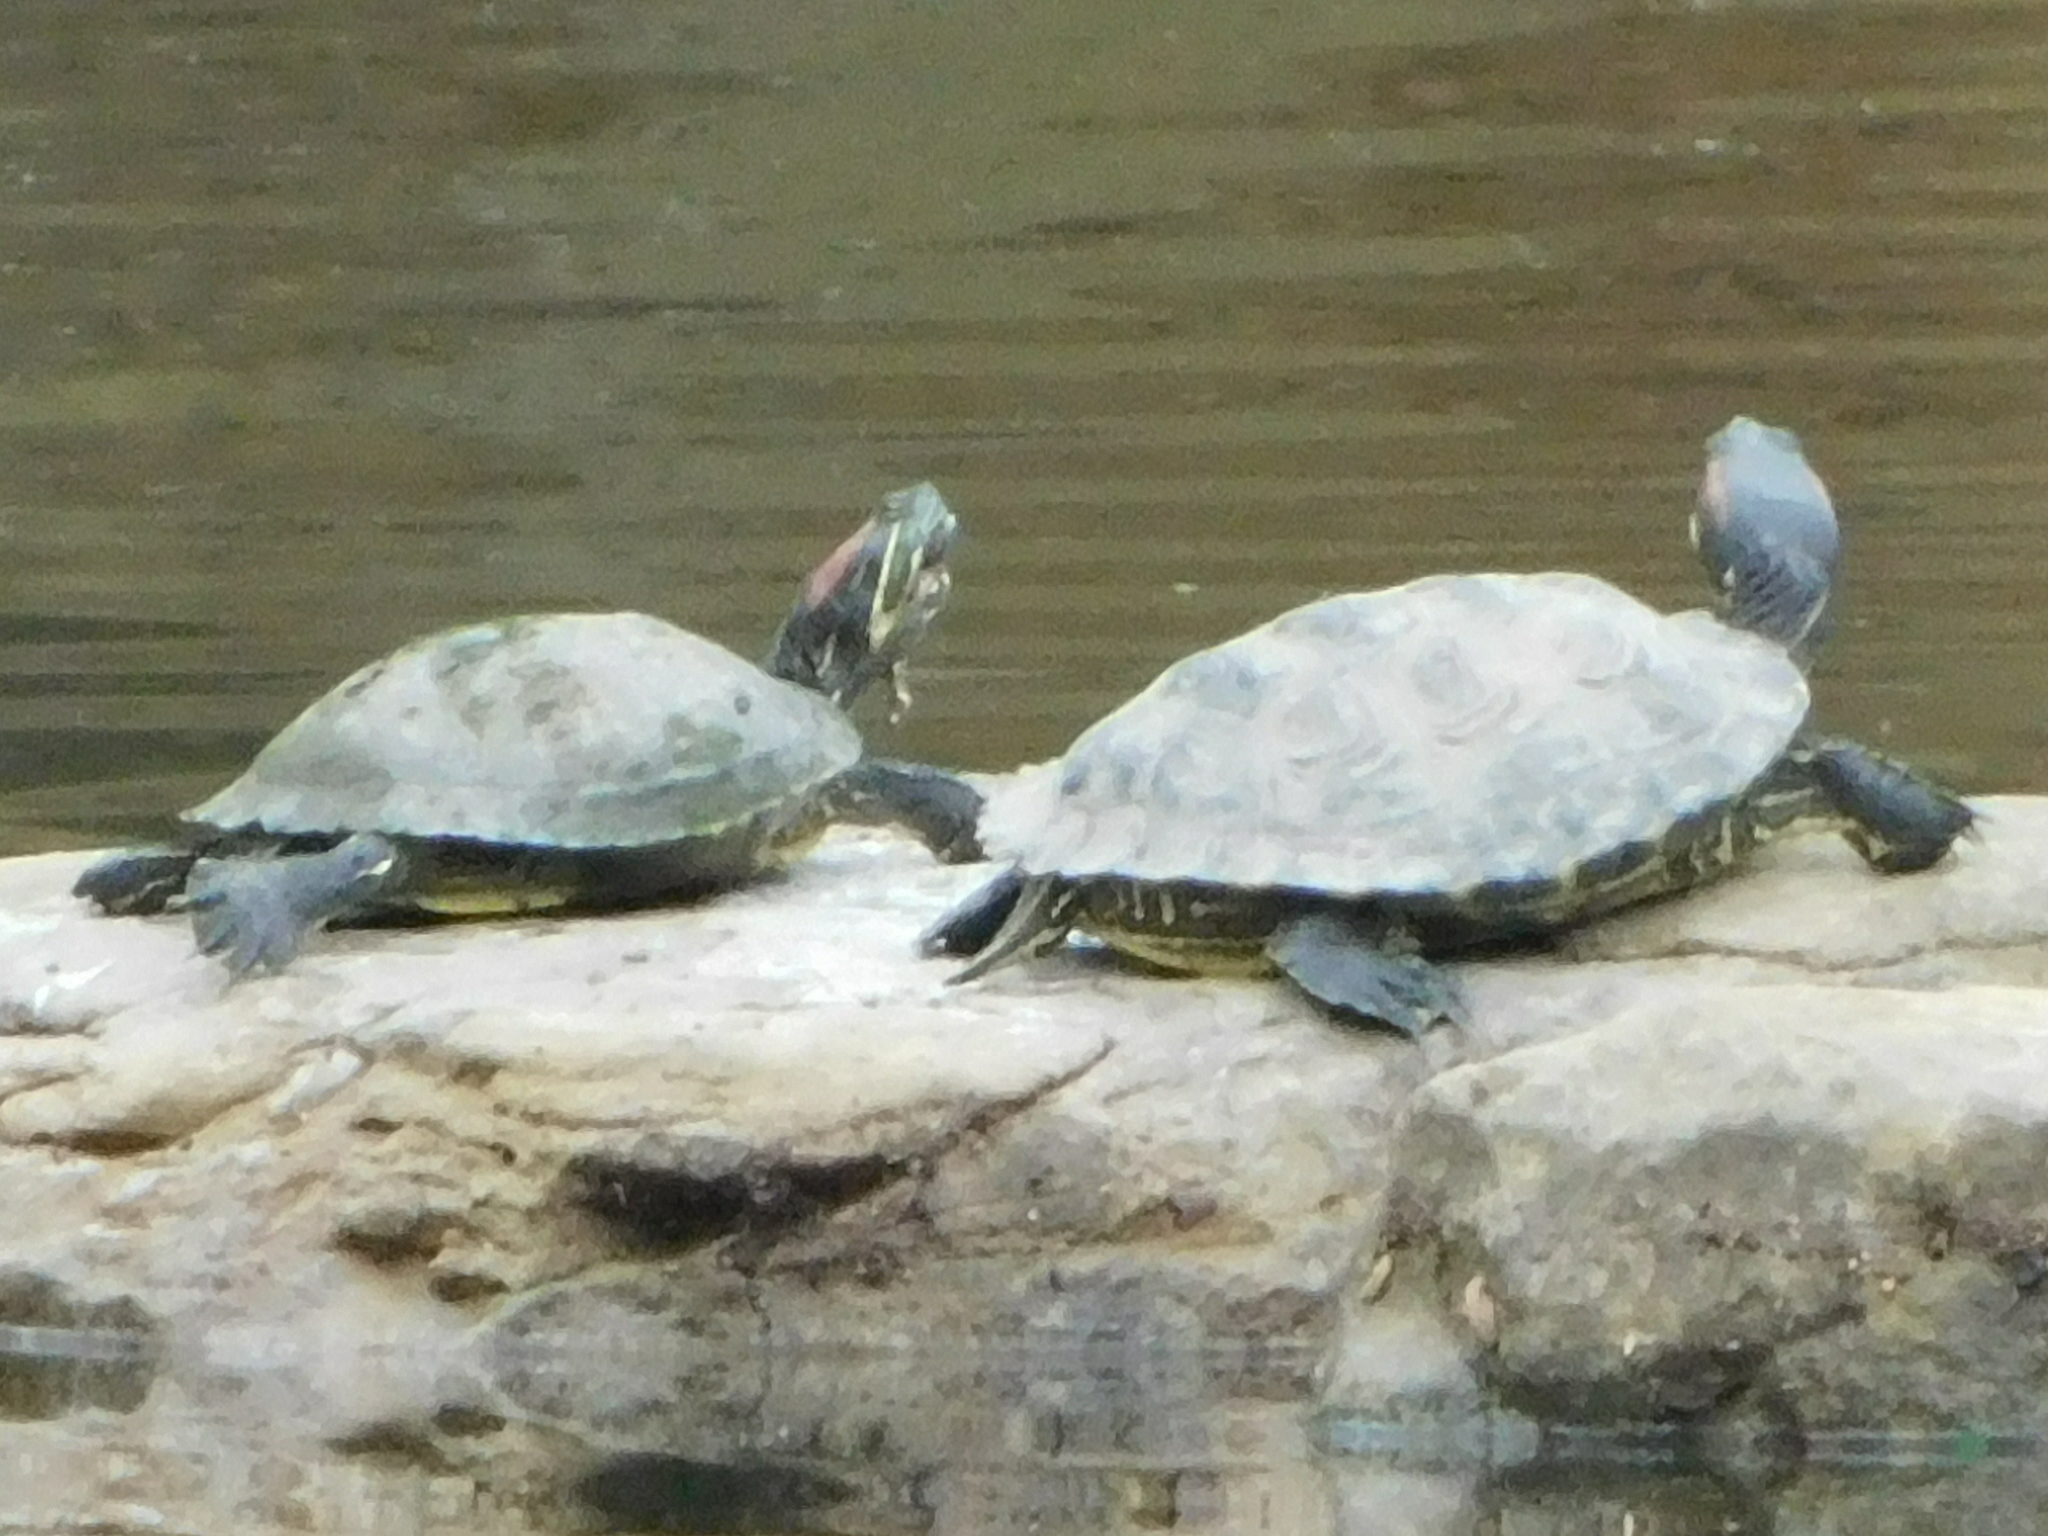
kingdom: Animalia
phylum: Chordata
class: Testudines
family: Emydidae
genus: Trachemys
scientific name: Trachemys scripta
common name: Slider
